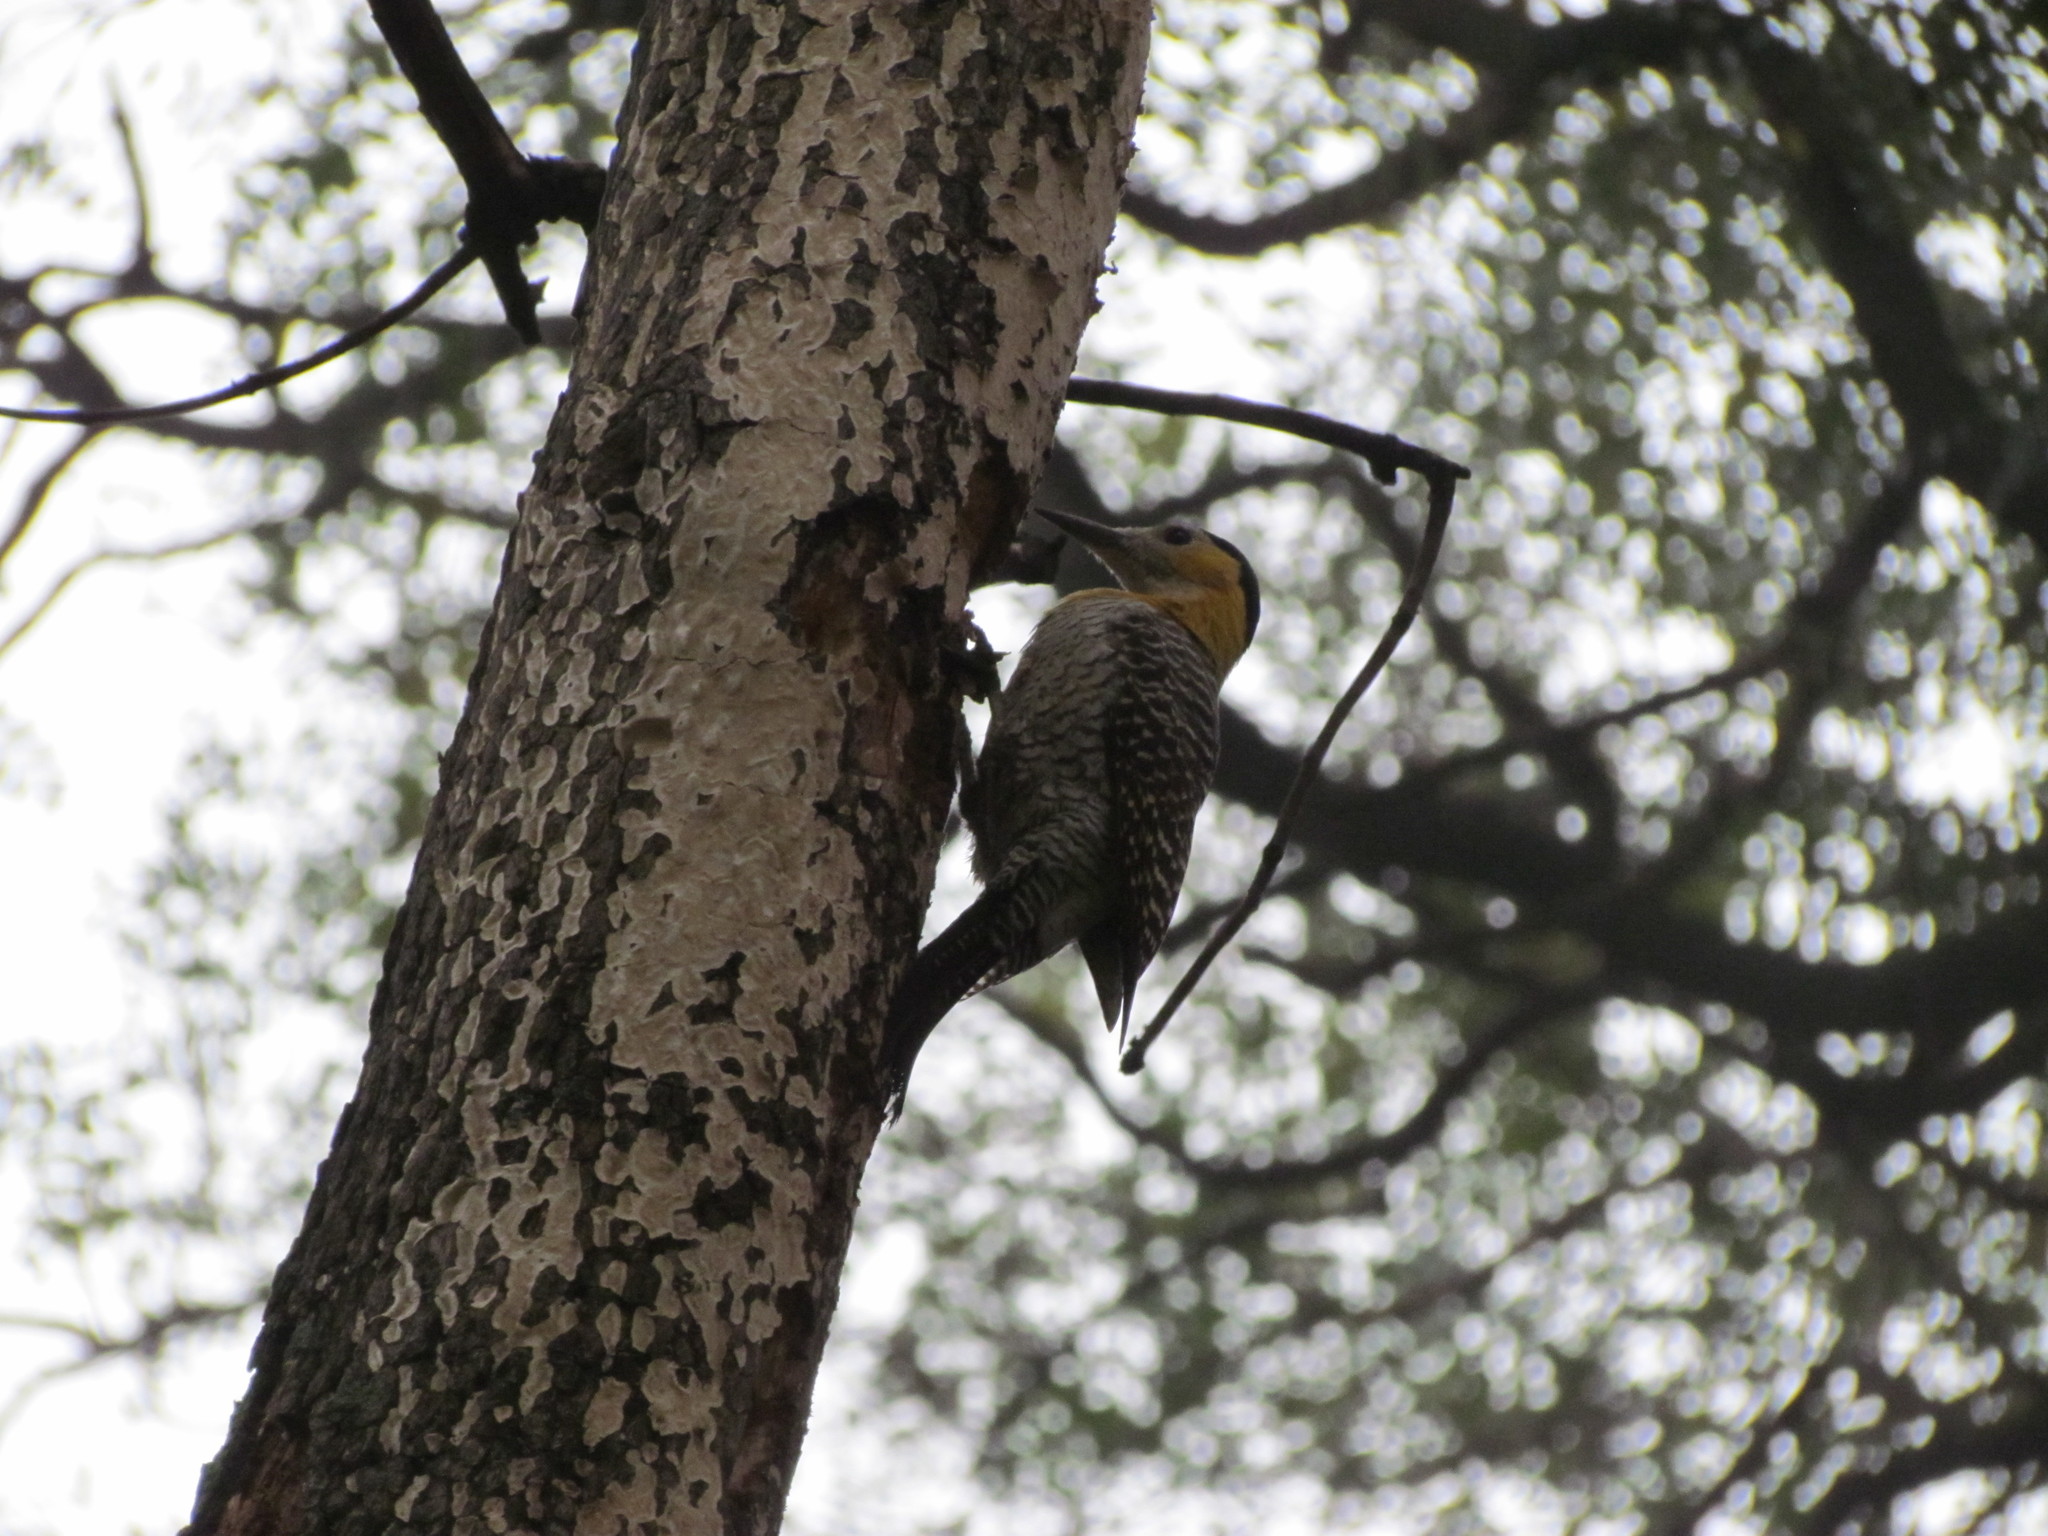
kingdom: Animalia
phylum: Chordata
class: Aves
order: Piciformes
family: Picidae
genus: Colaptes
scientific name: Colaptes campestris
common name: Campo flicker
